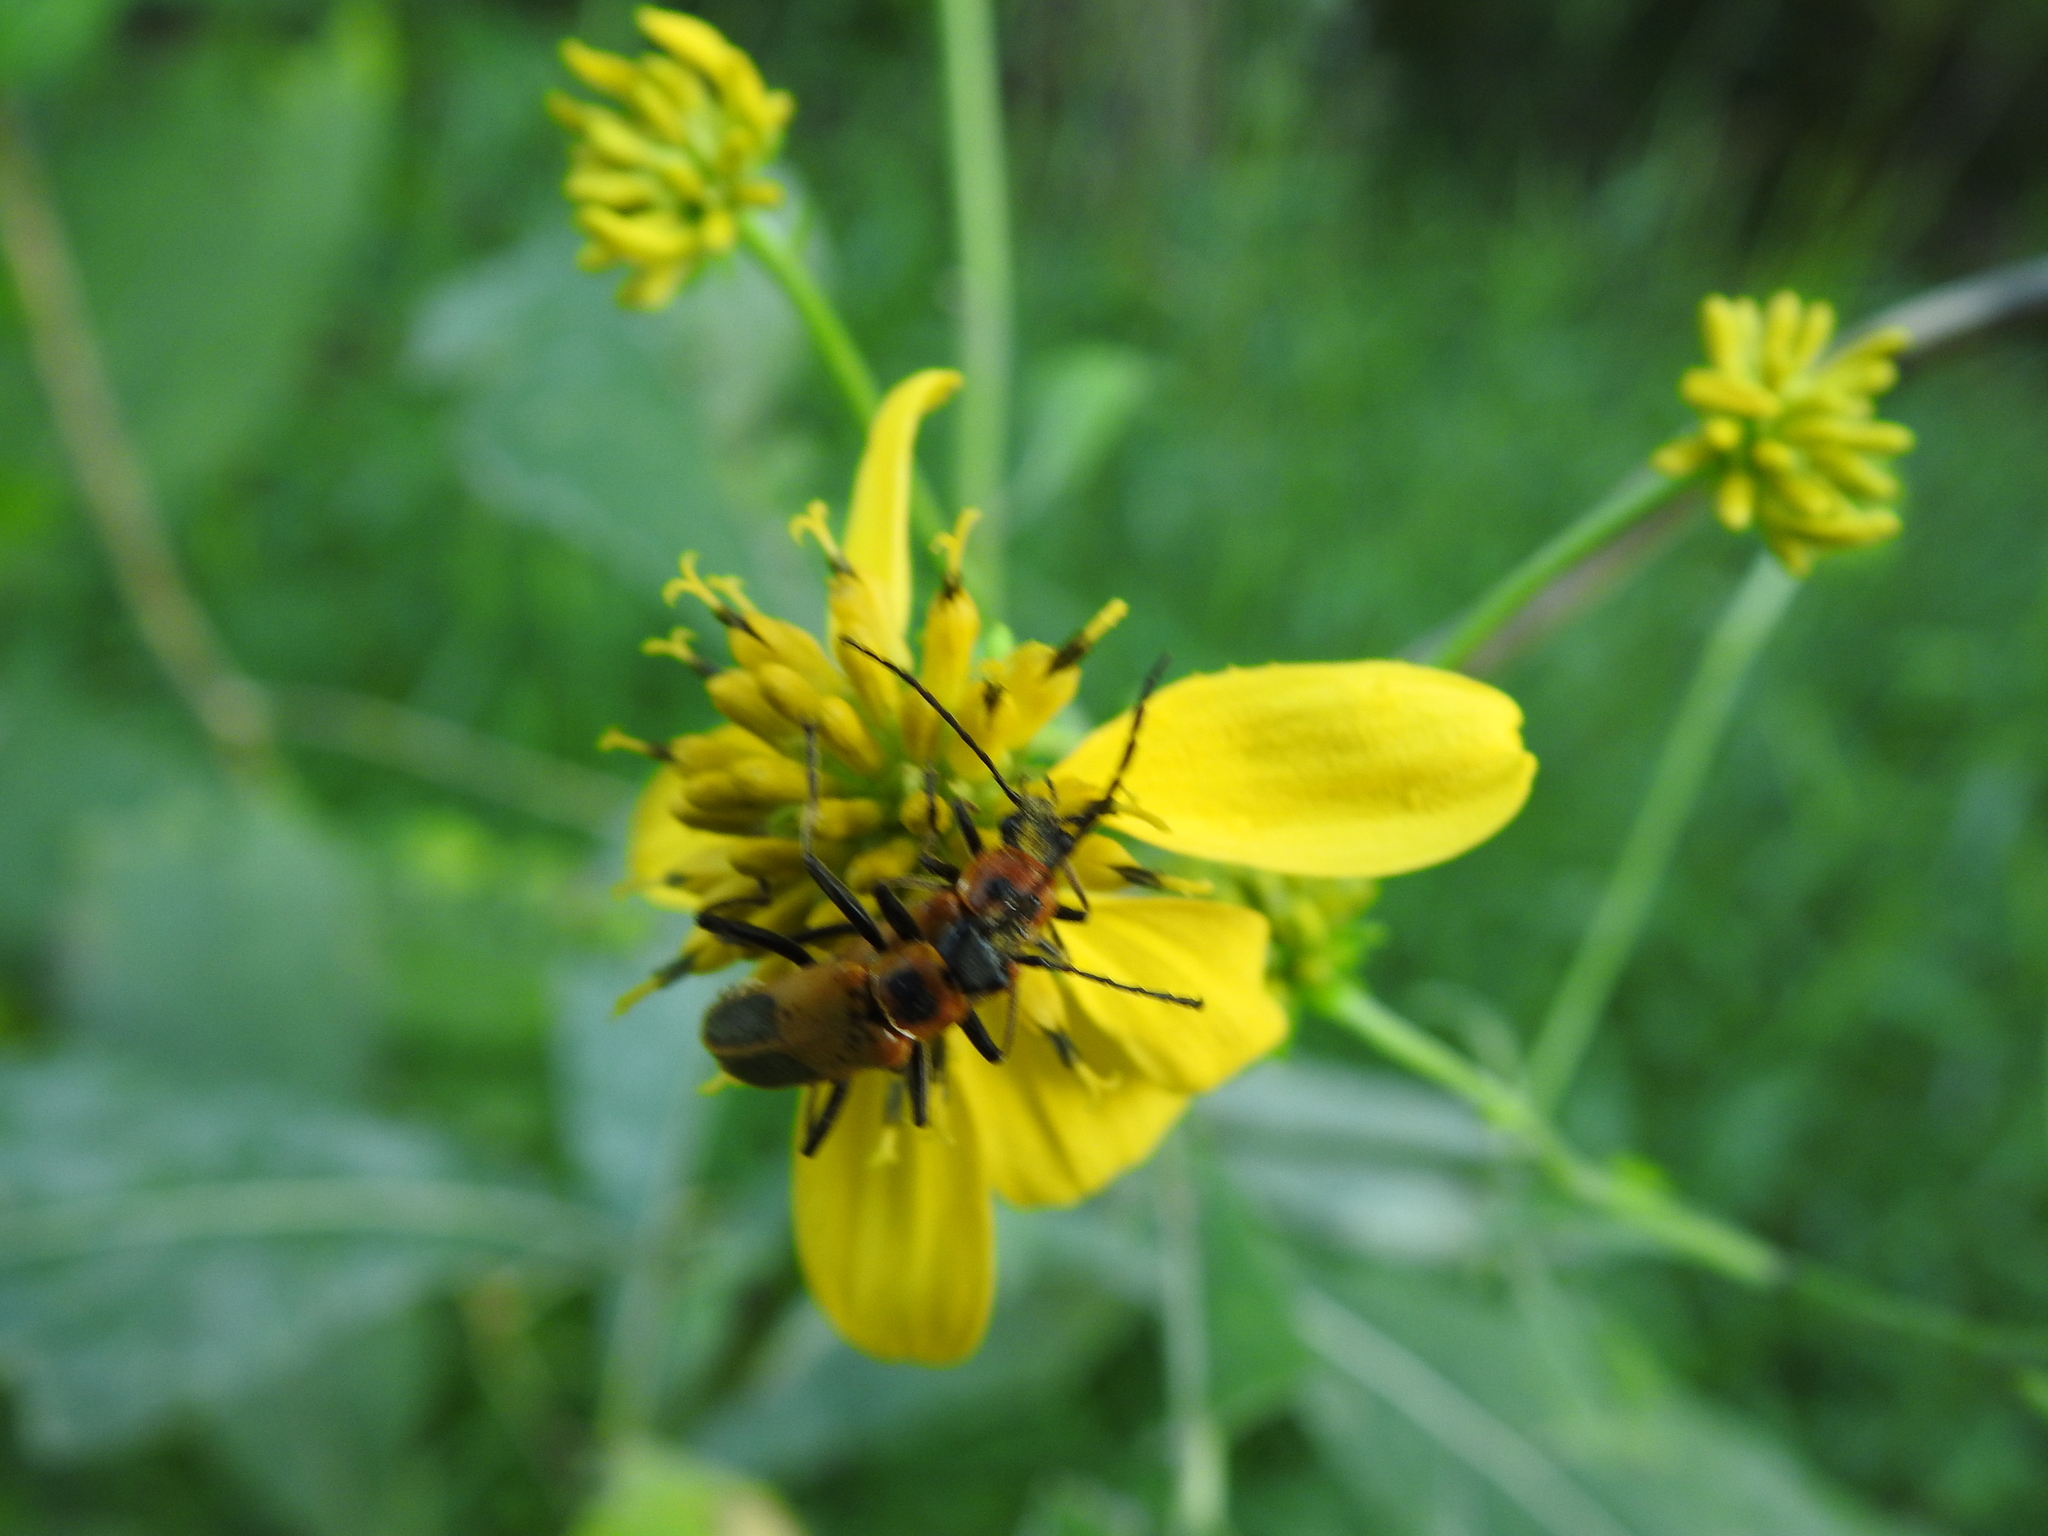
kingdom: Animalia
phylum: Arthropoda
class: Insecta
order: Coleoptera
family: Cantharidae
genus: Chauliognathus
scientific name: Chauliognathus pensylvanicus
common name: Goldenrod soldier beetle
